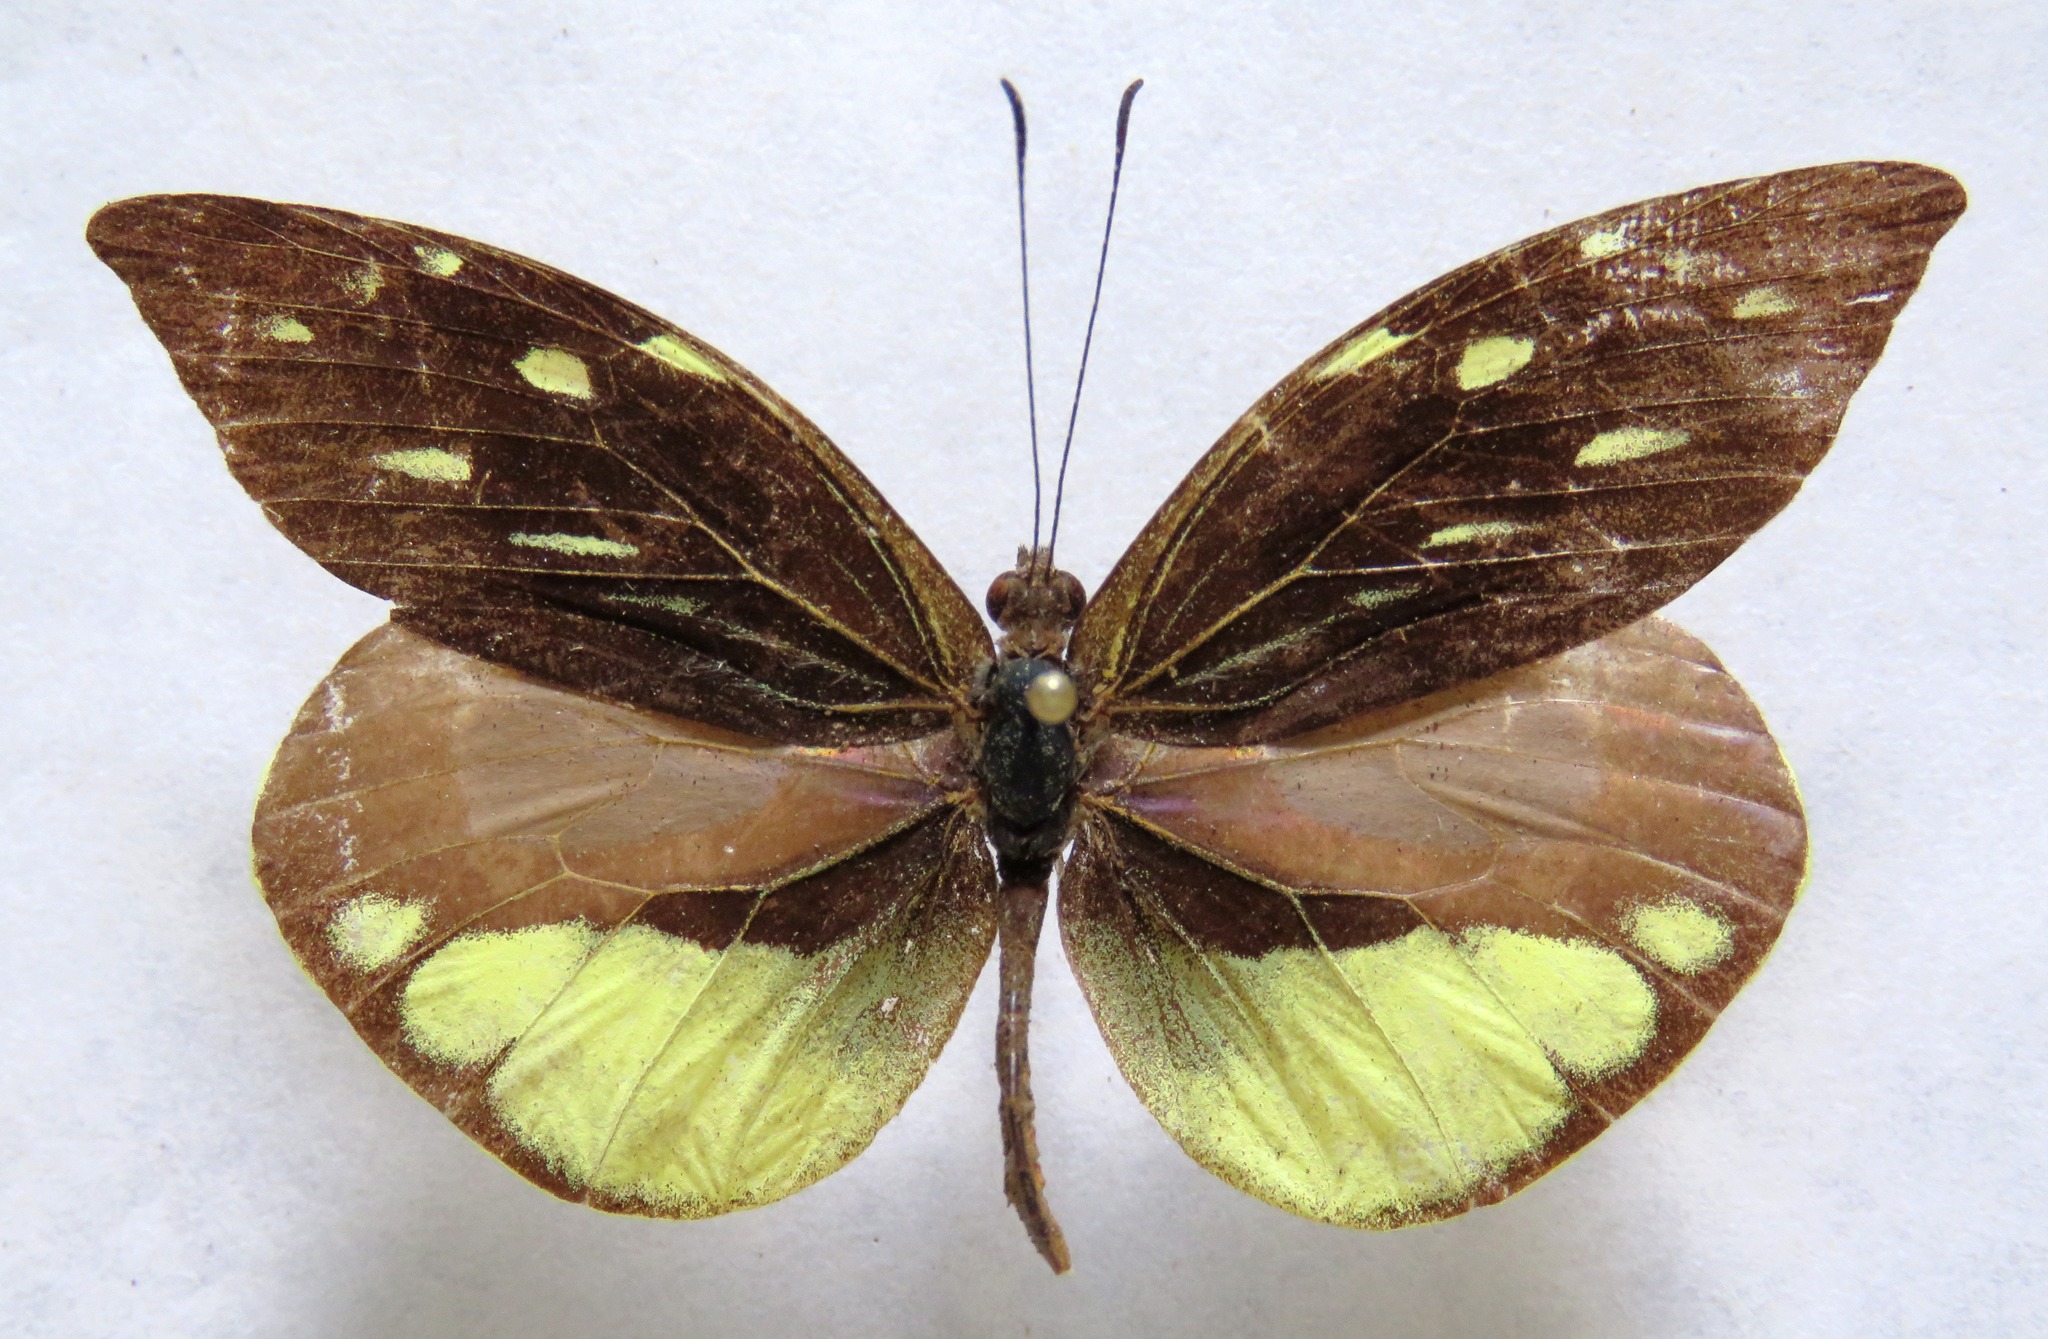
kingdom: Animalia
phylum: Arthropoda
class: Insecta
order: Lepidoptera
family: Pieridae
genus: Lieinix
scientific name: Lieinix nemesis
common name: Frosted mimic-white
